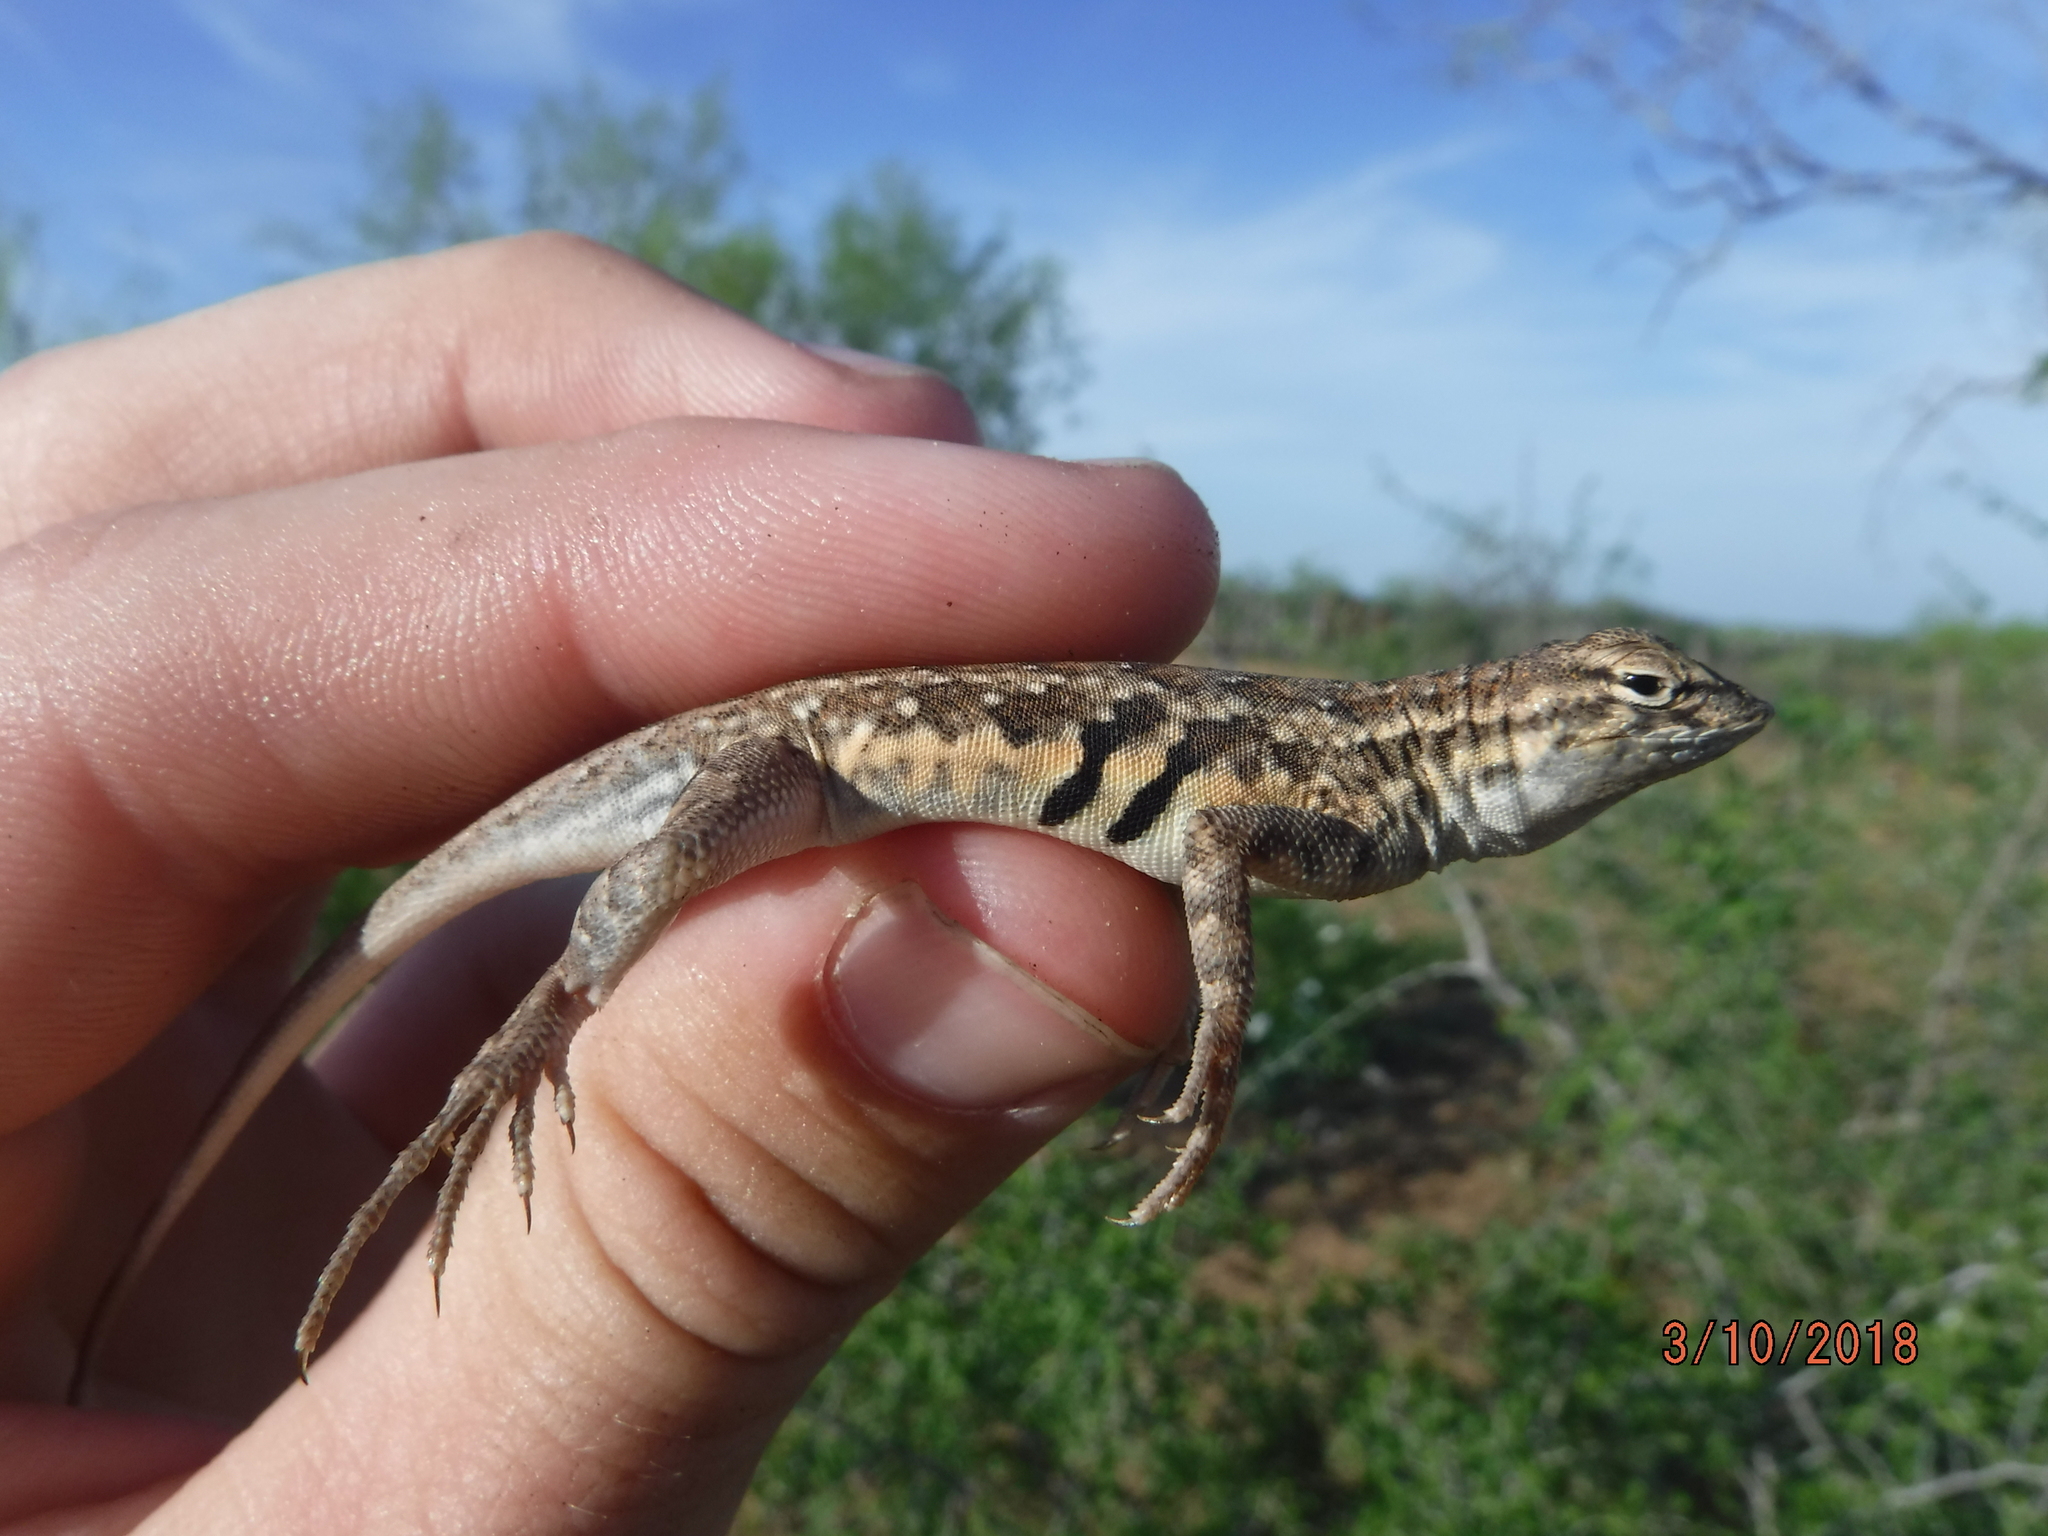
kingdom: Animalia
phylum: Chordata
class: Squamata
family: Phrynosomatidae
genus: Holbrookia
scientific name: Holbrookia propinqua
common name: Keeled earless lizard
